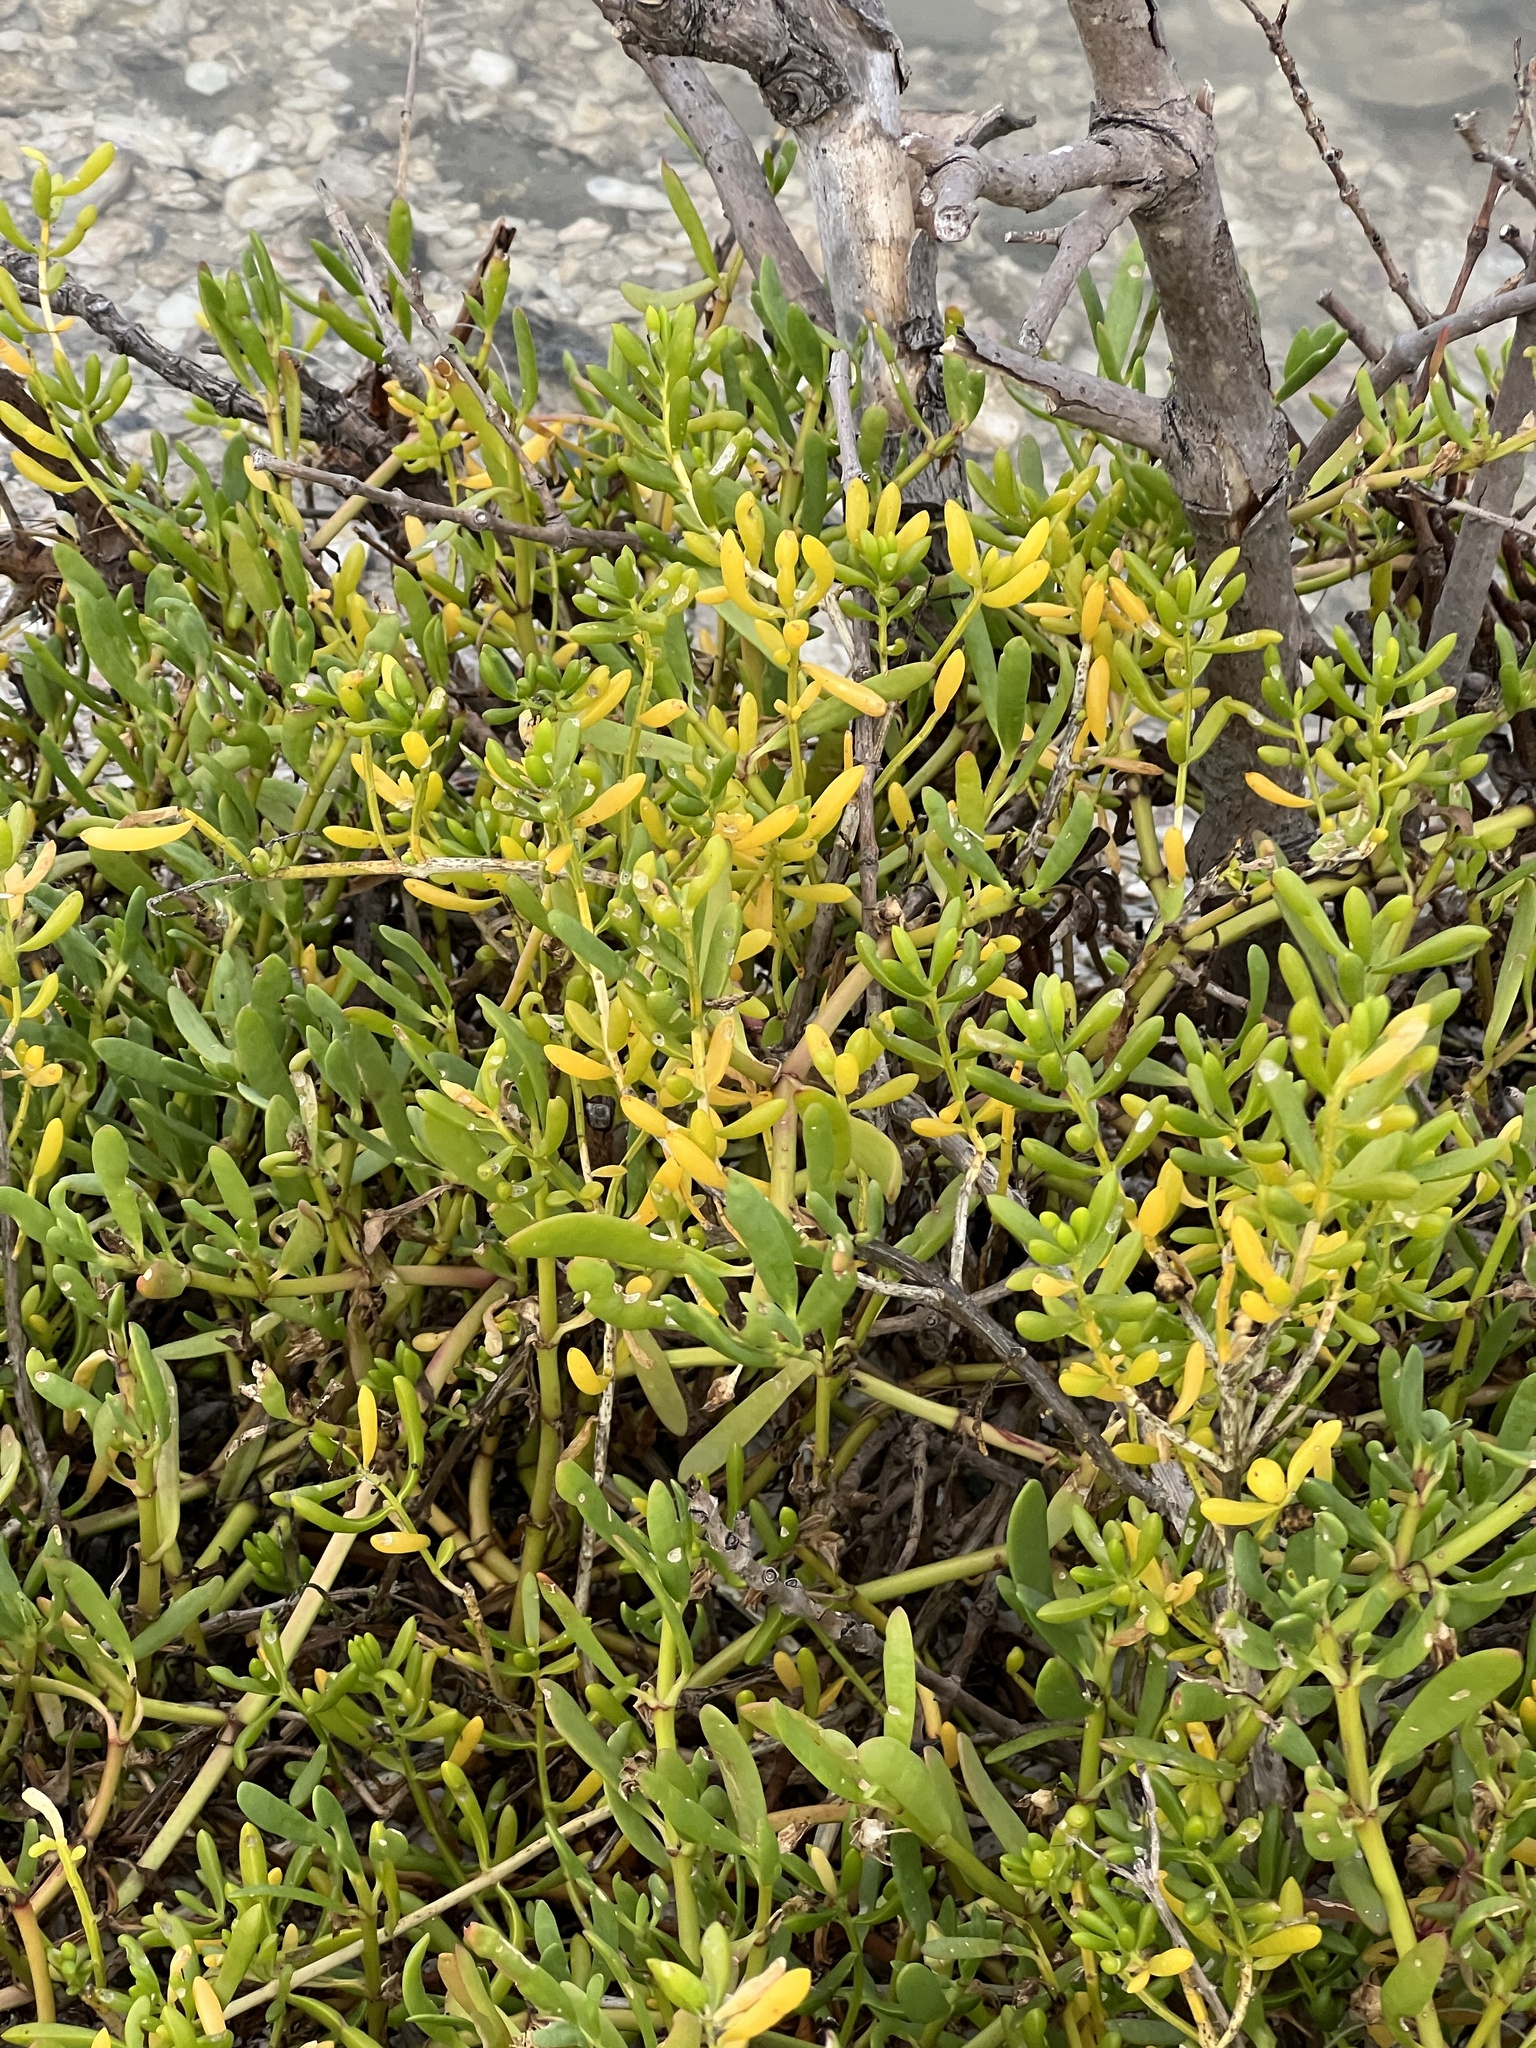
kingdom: Plantae
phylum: Tracheophyta
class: Magnoliopsida
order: Brassicales
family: Bataceae
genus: Batis
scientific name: Batis maritima
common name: Turtleweed
